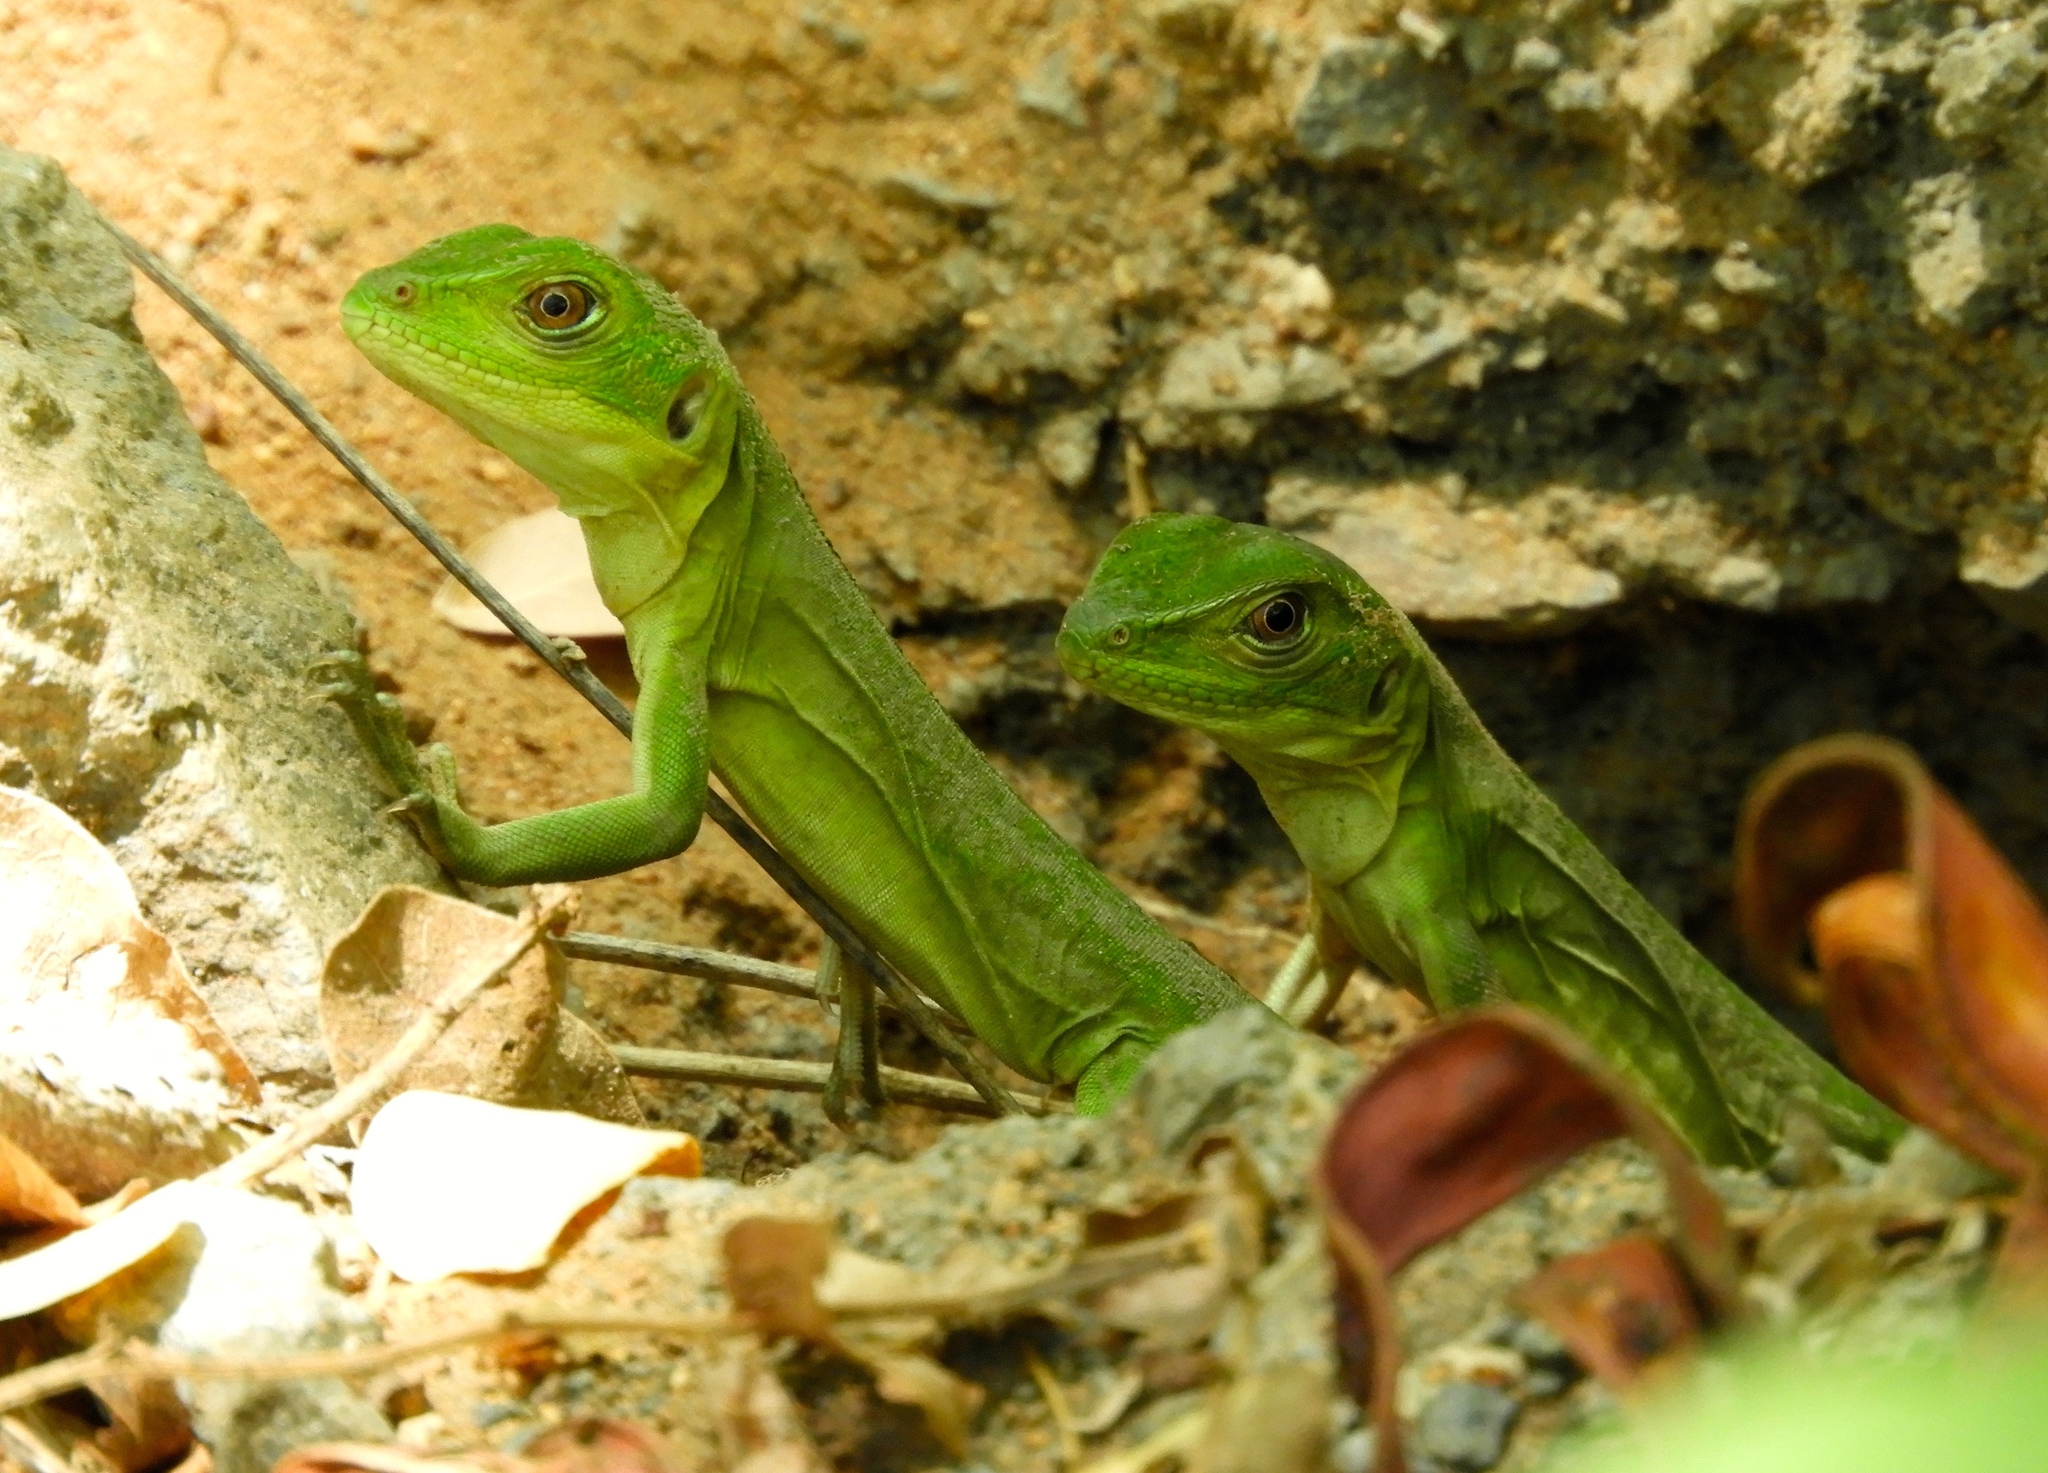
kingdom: Animalia
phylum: Chordata
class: Squamata
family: Iguanidae
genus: Ctenosaura
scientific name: Ctenosaura pectinata
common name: Guerreran spiny-tailed iguana
